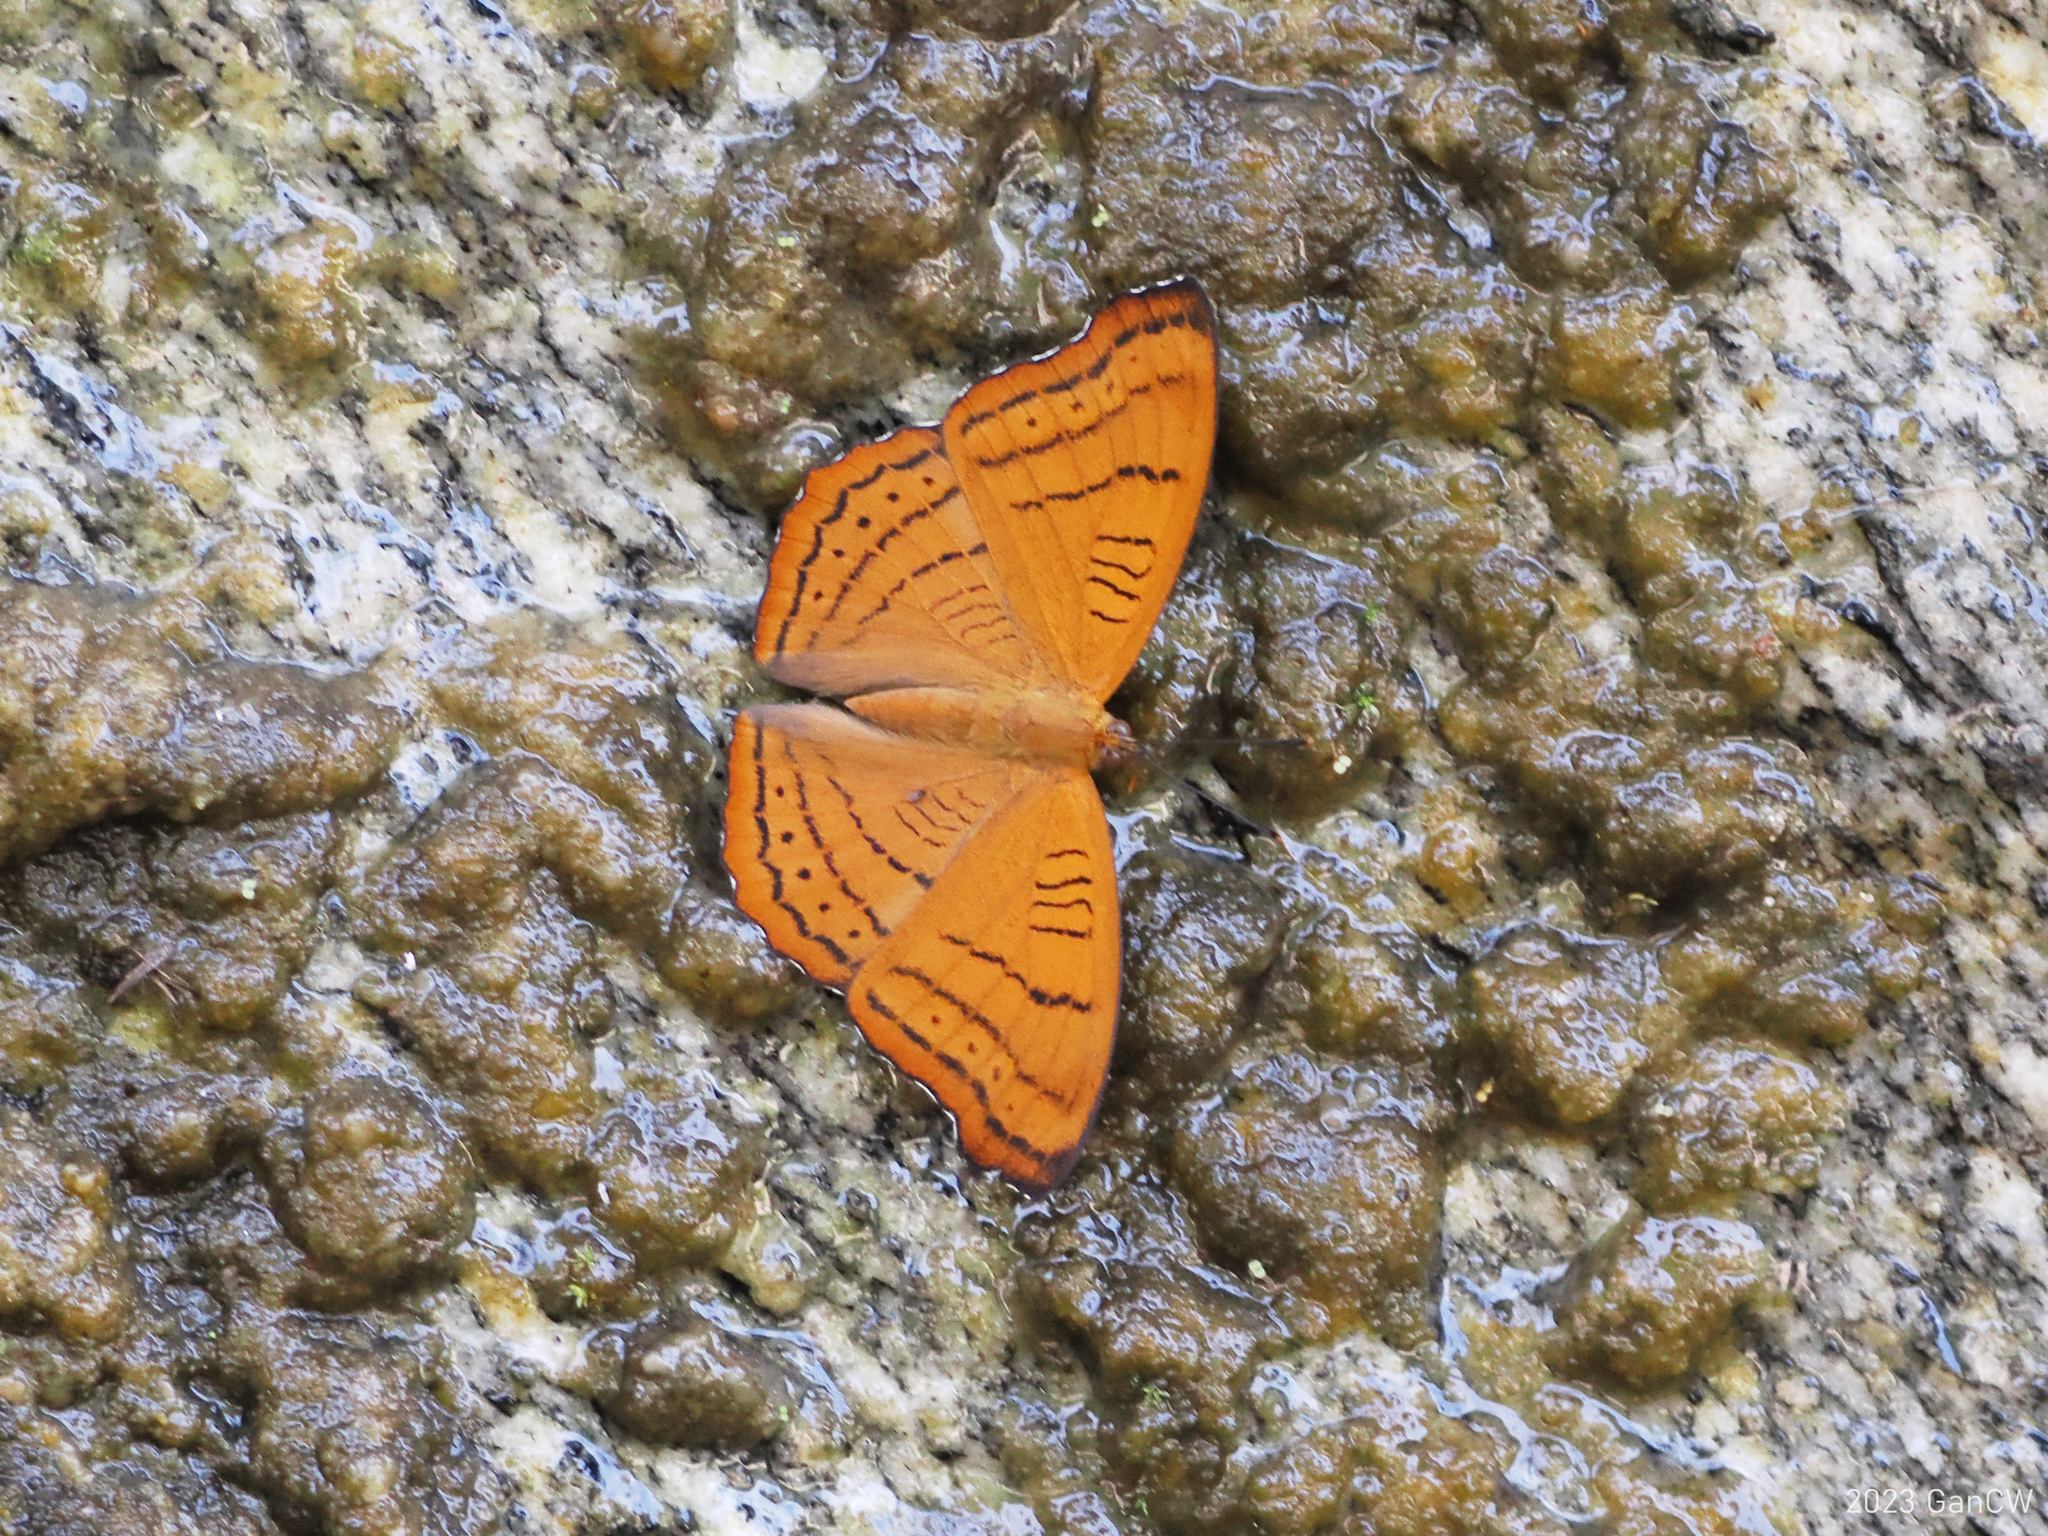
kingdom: Animalia
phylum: Arthropoda
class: Insecta
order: Lepidoptera
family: Nymphalidae
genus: Pseudergolis
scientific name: Pseudergolis wedah
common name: Tabby
